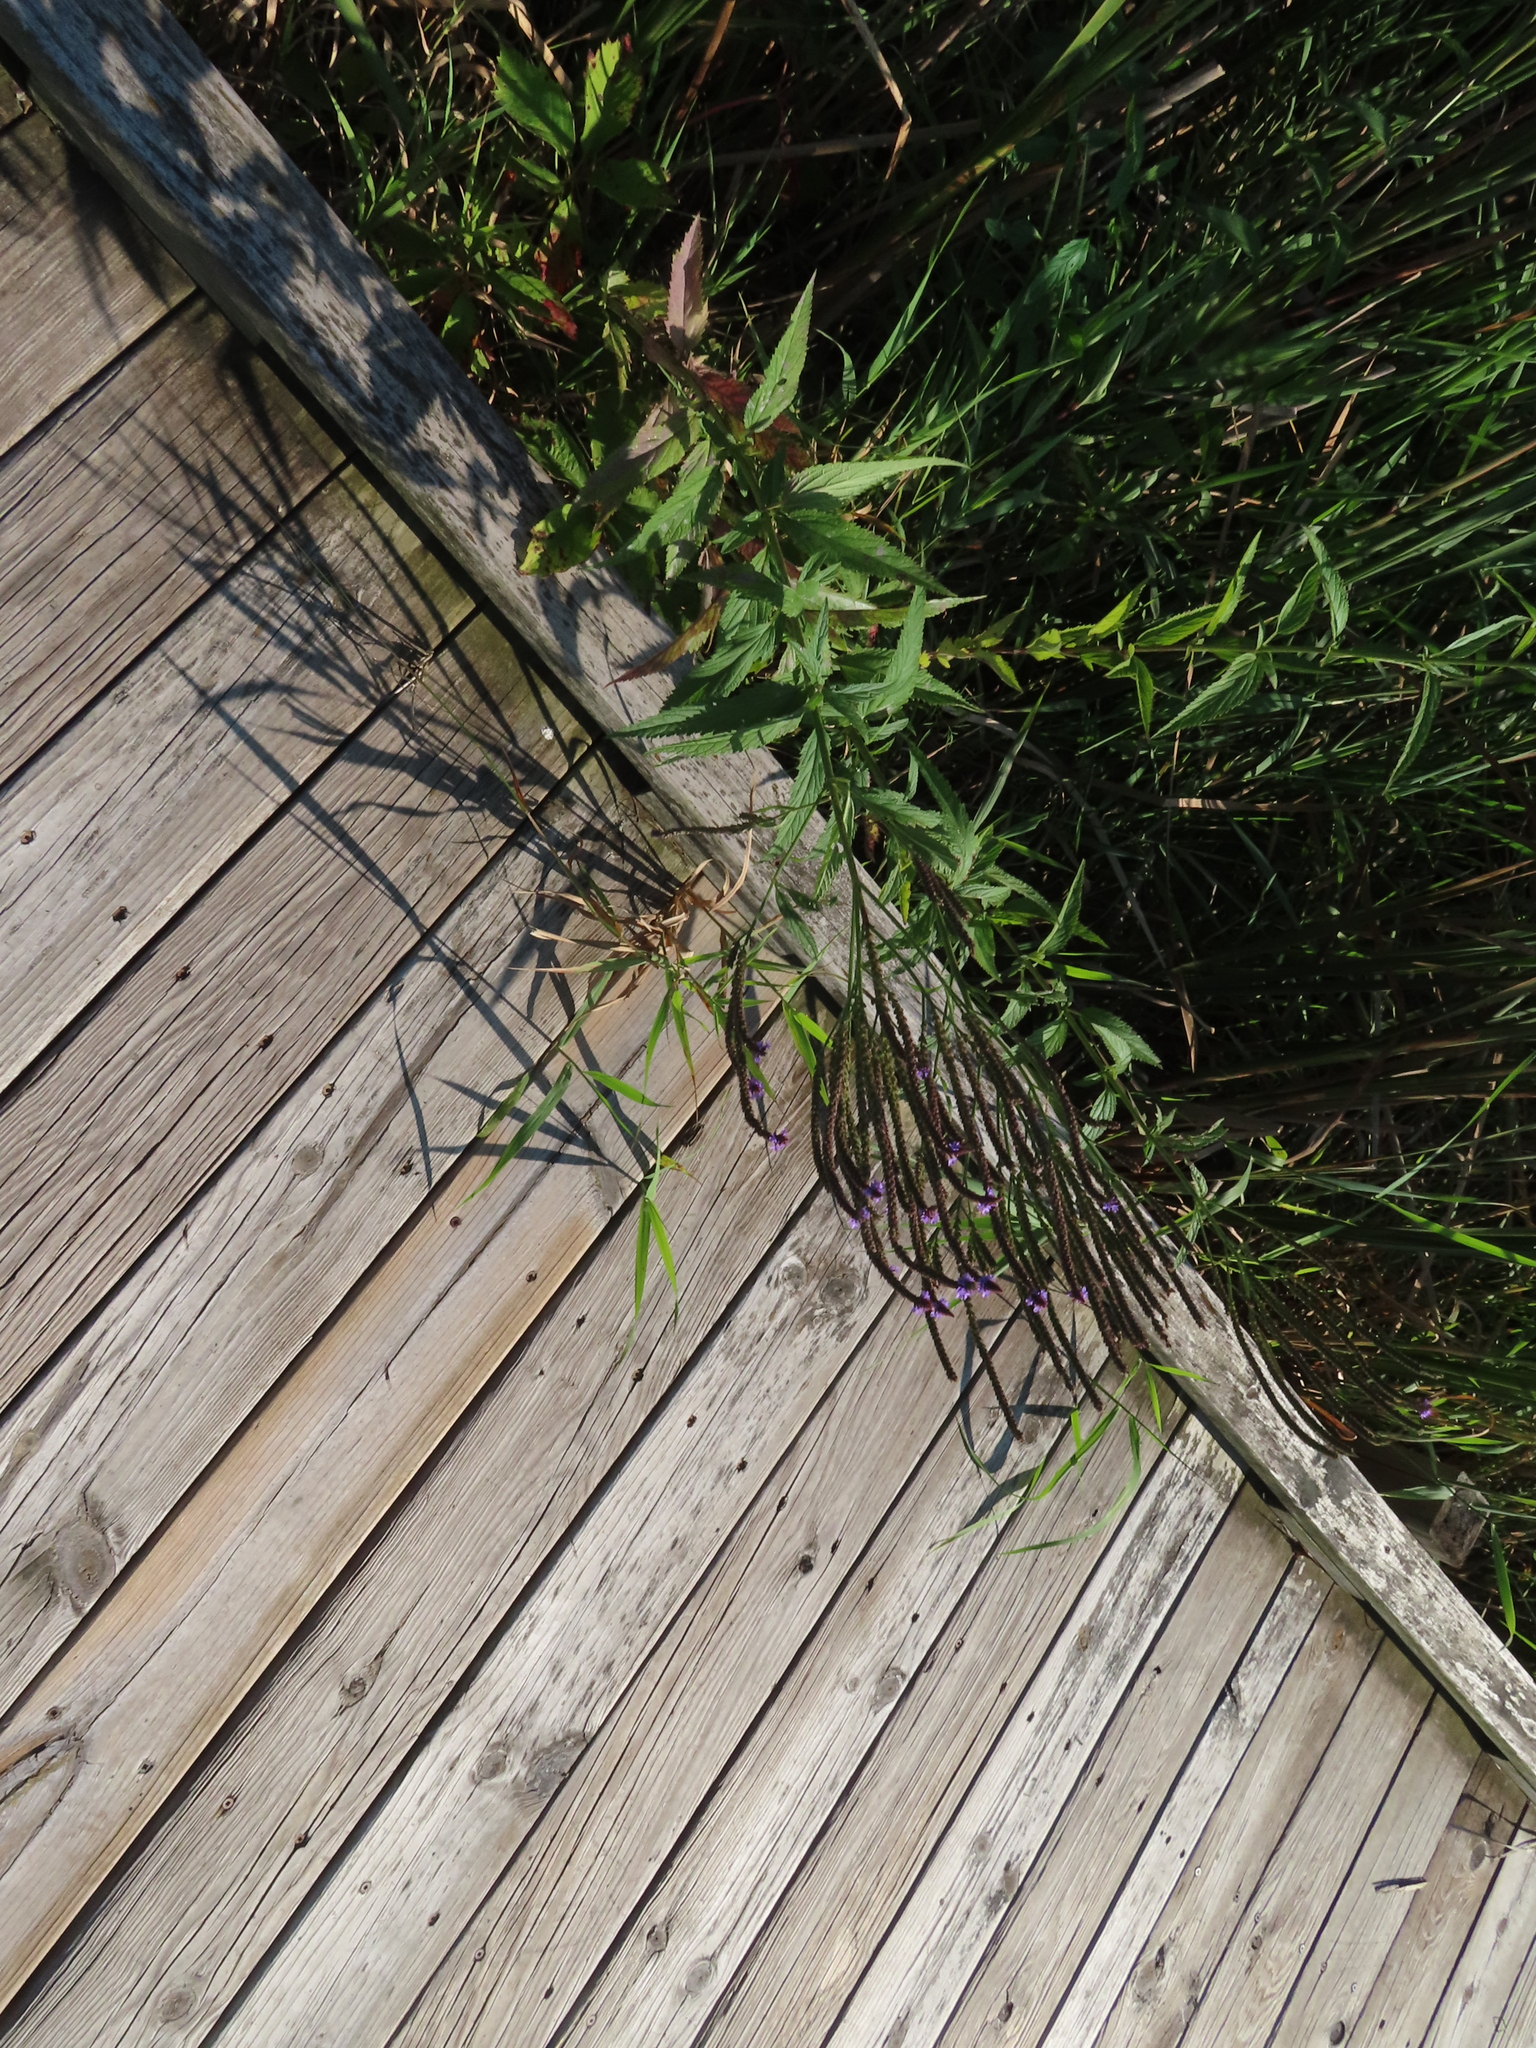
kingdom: Plantae
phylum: Tracheophyta
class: Magnoliopsida
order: Lamiales
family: Verbenaceae
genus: Verbena
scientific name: Verbena hastata
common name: American blue vervain
